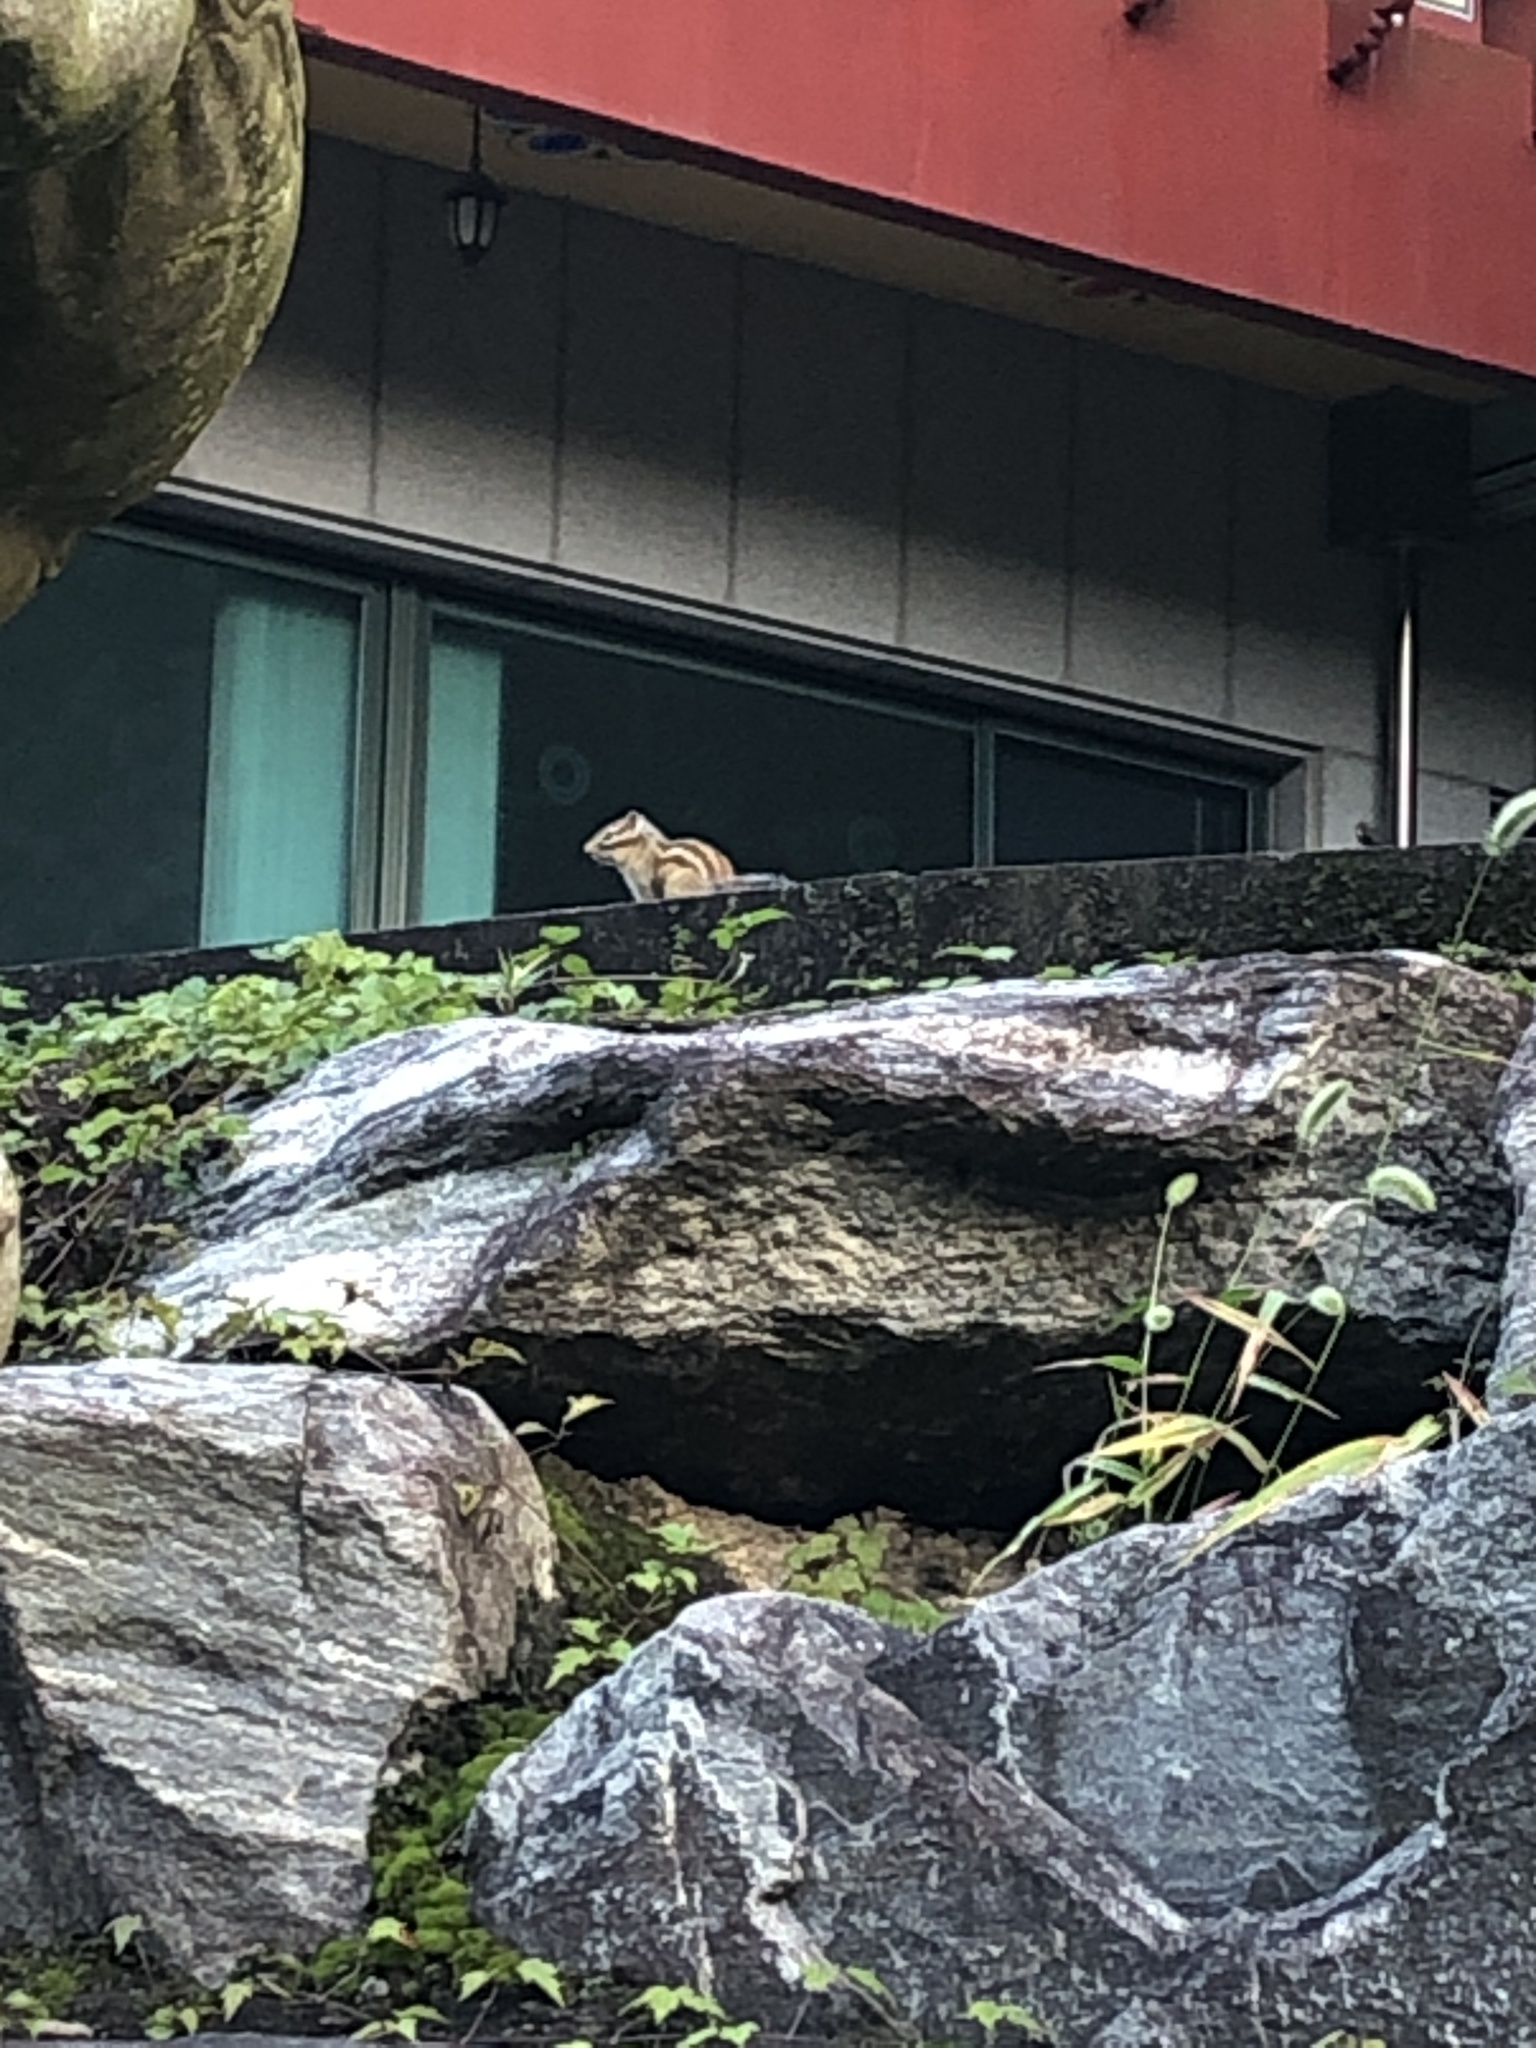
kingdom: Animalia
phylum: Chordata
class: Mammalia
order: Rodentia
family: Sciuridae
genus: Tamias
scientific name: Tamias sibiricus
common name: Siberian chipmunk
